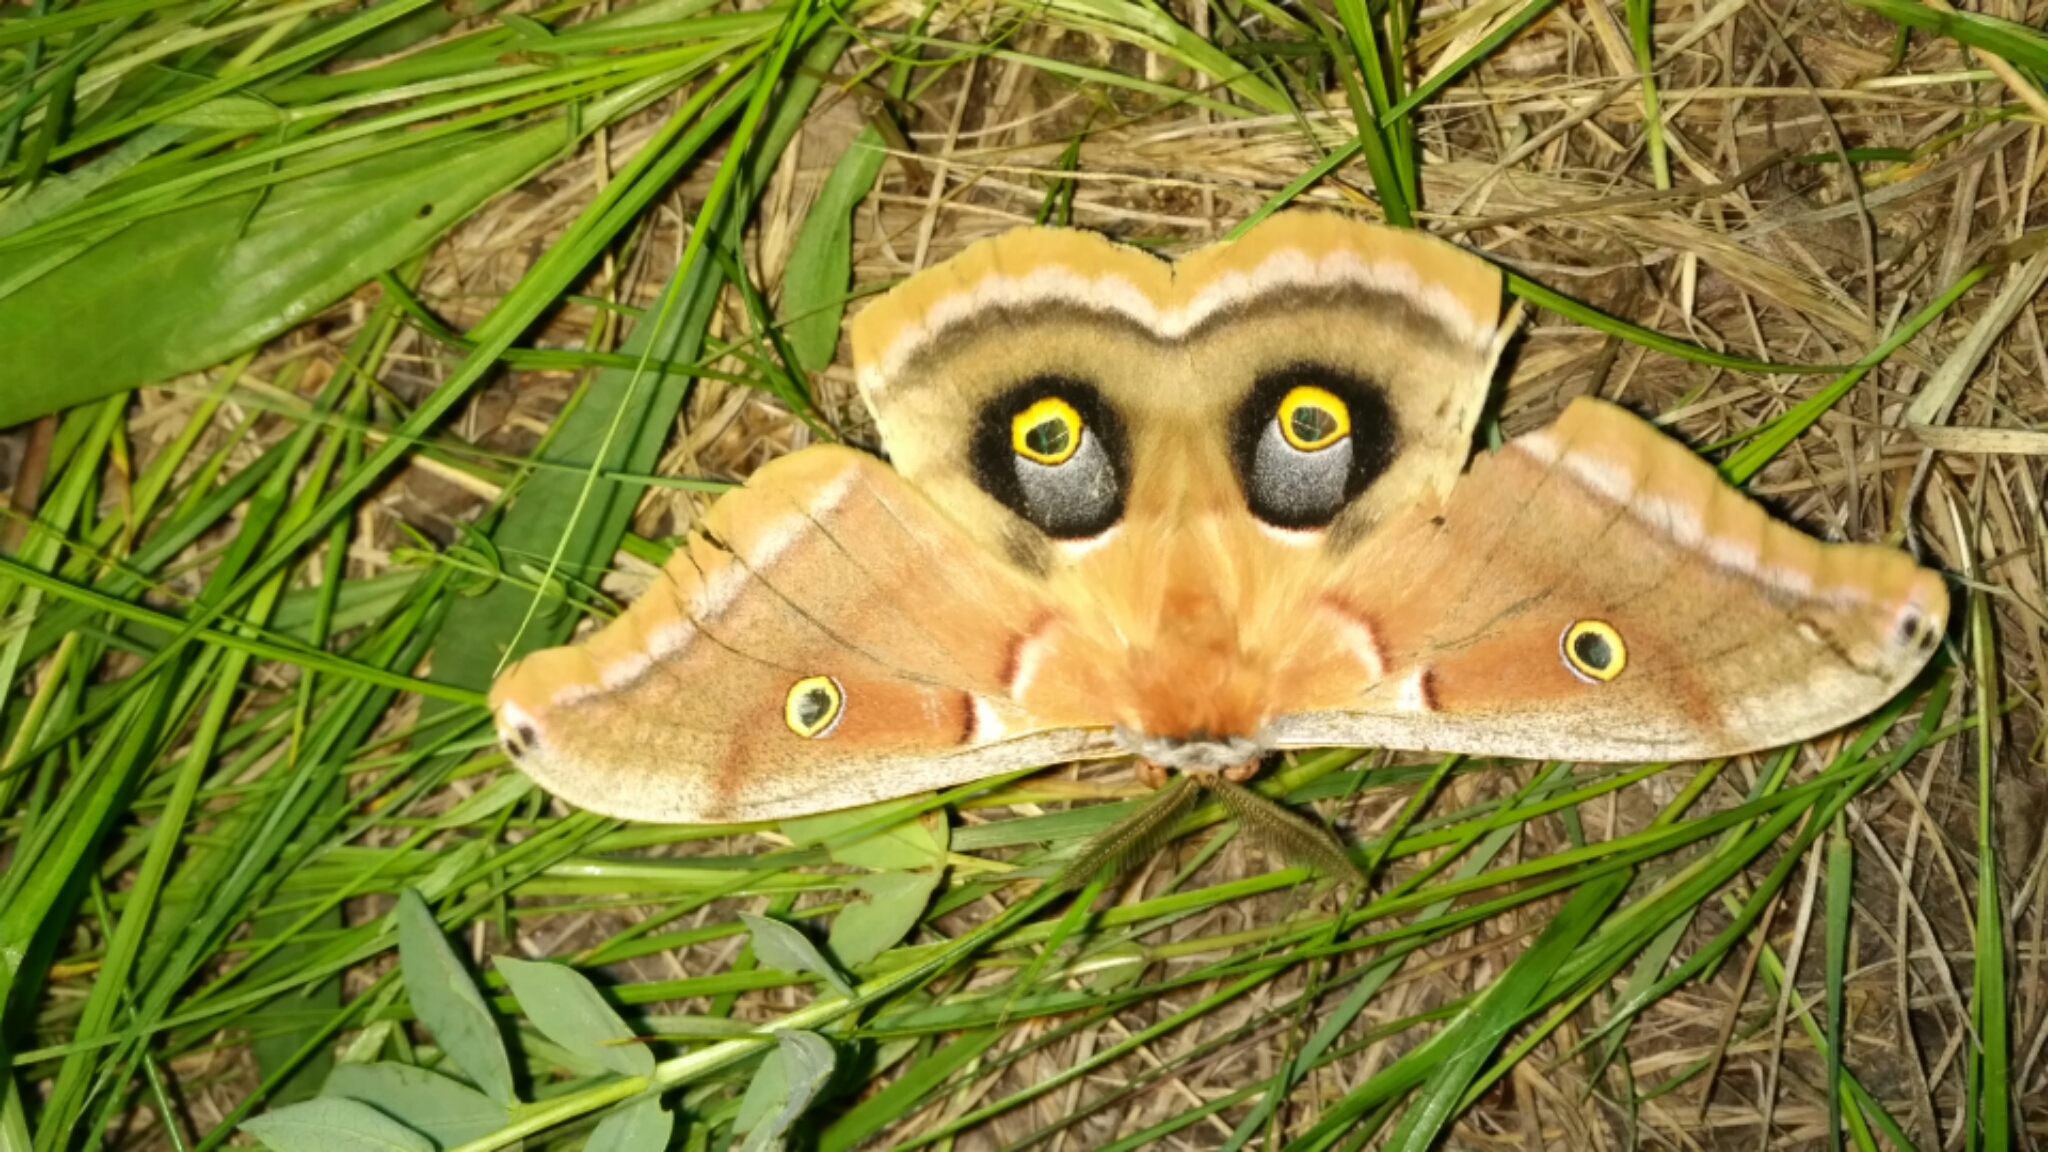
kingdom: Animalia
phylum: Arthropoda
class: Insecta
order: Lepidoptera
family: Saturniidae
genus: Antheraea
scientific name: Antheraea polyphemus
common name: Polyphemus moth
